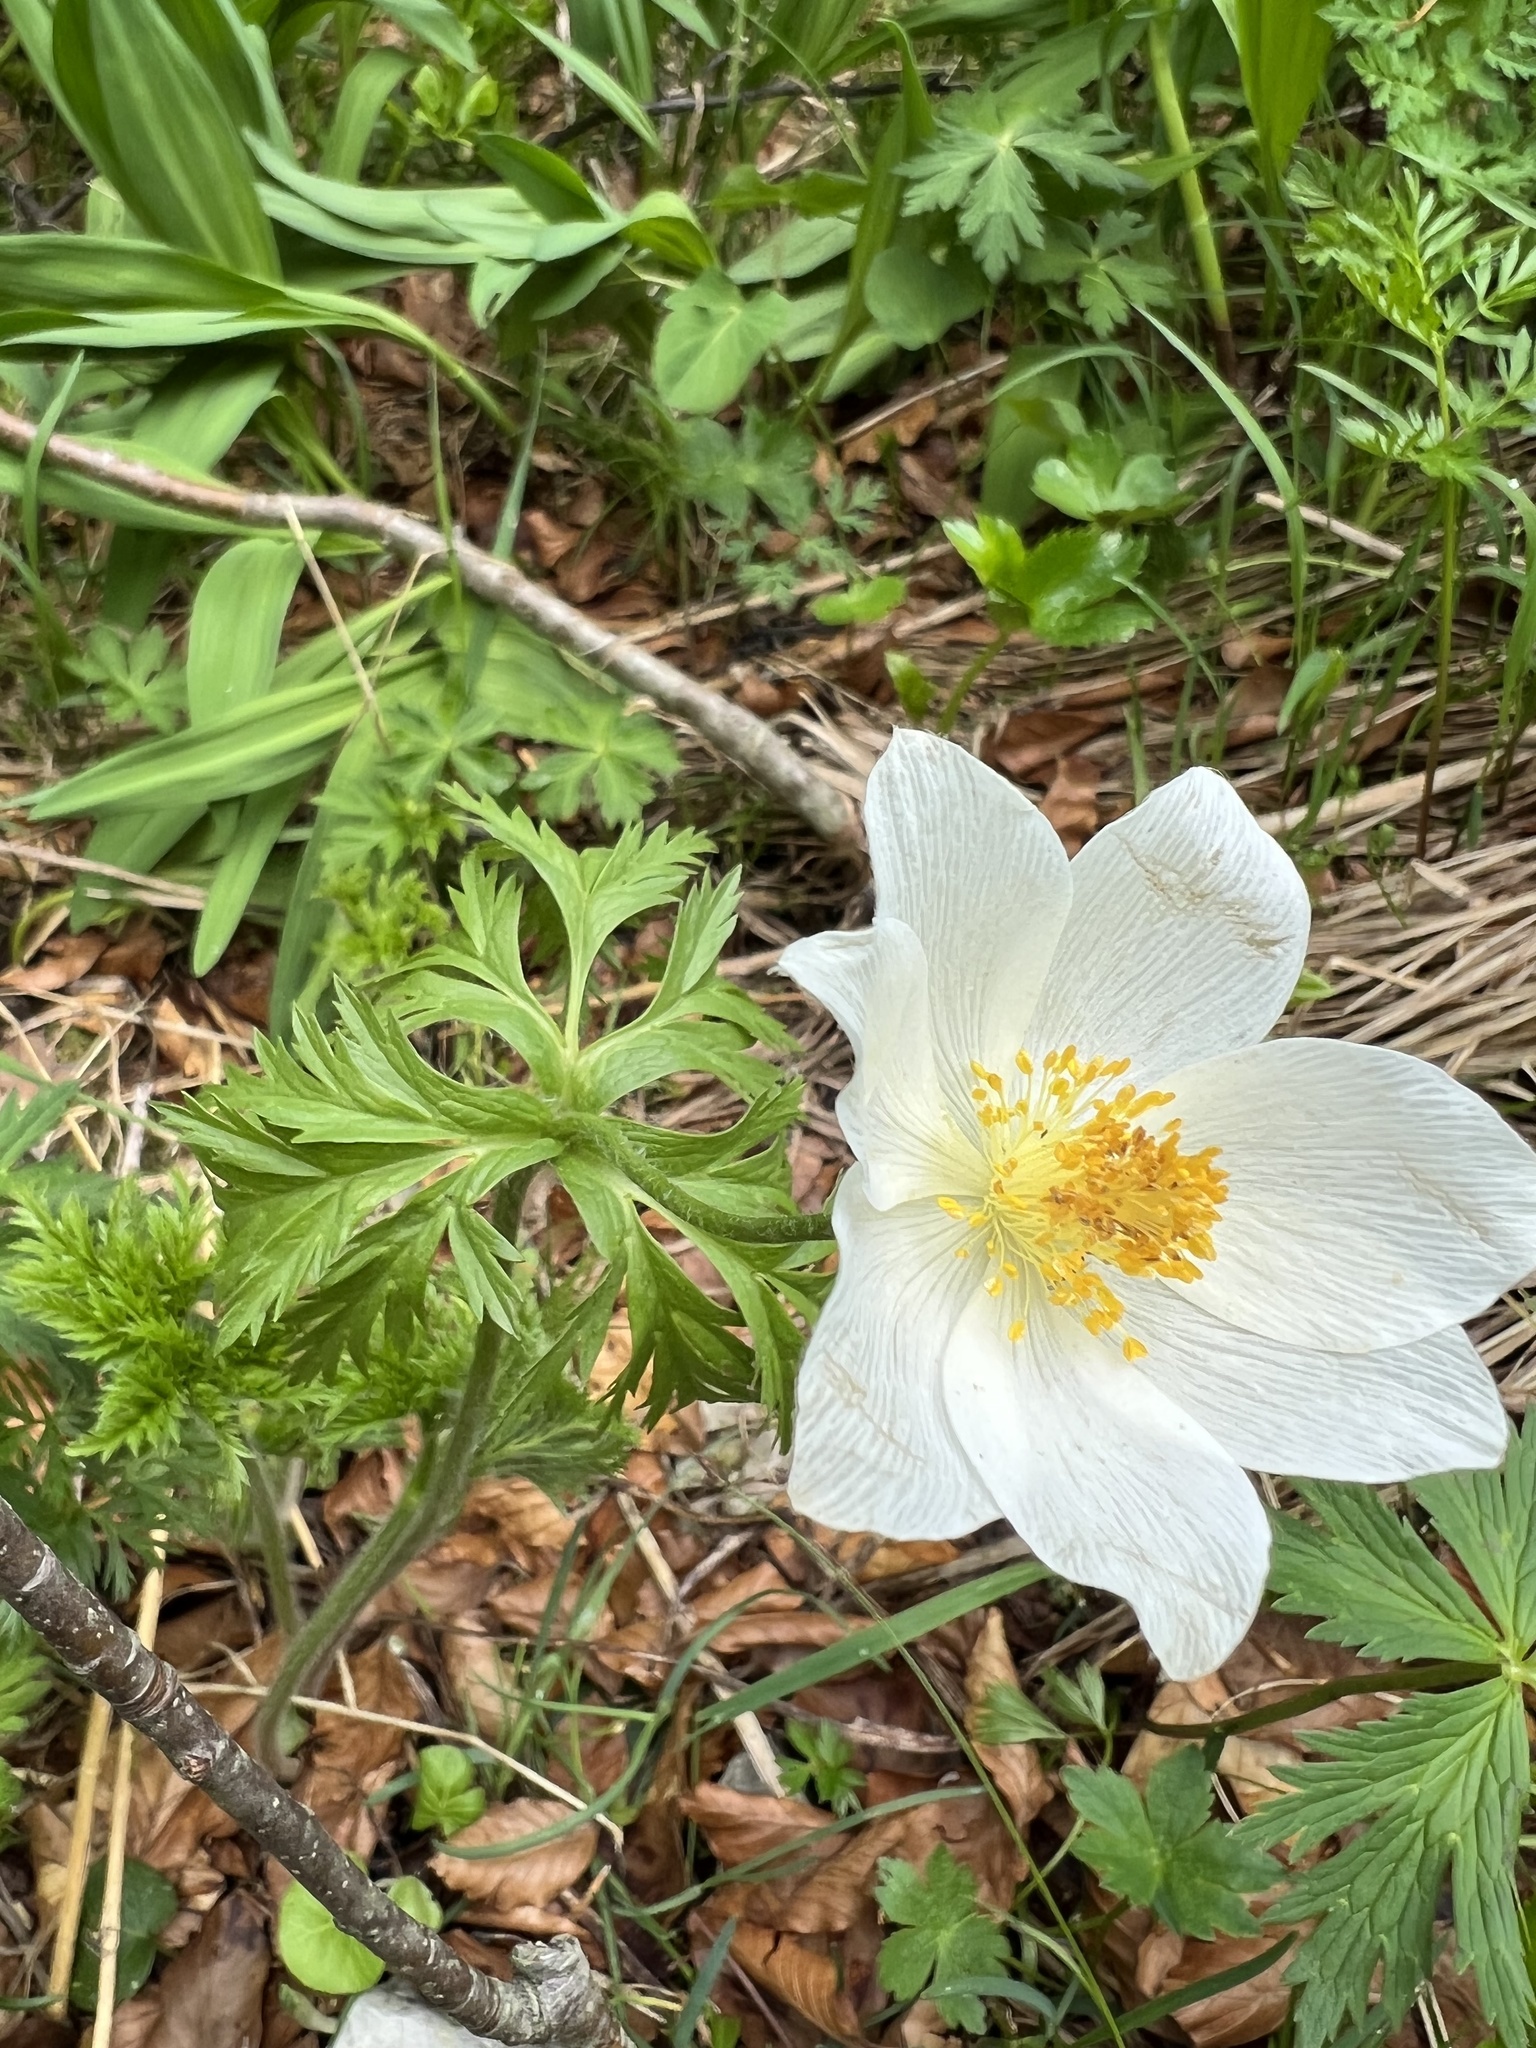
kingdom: Plantae
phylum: Tracheophyta
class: Magnoliopsida
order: Ranunculales
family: Ranunculaceae
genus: Pulsatilla
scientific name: Pulsatilla alpina
